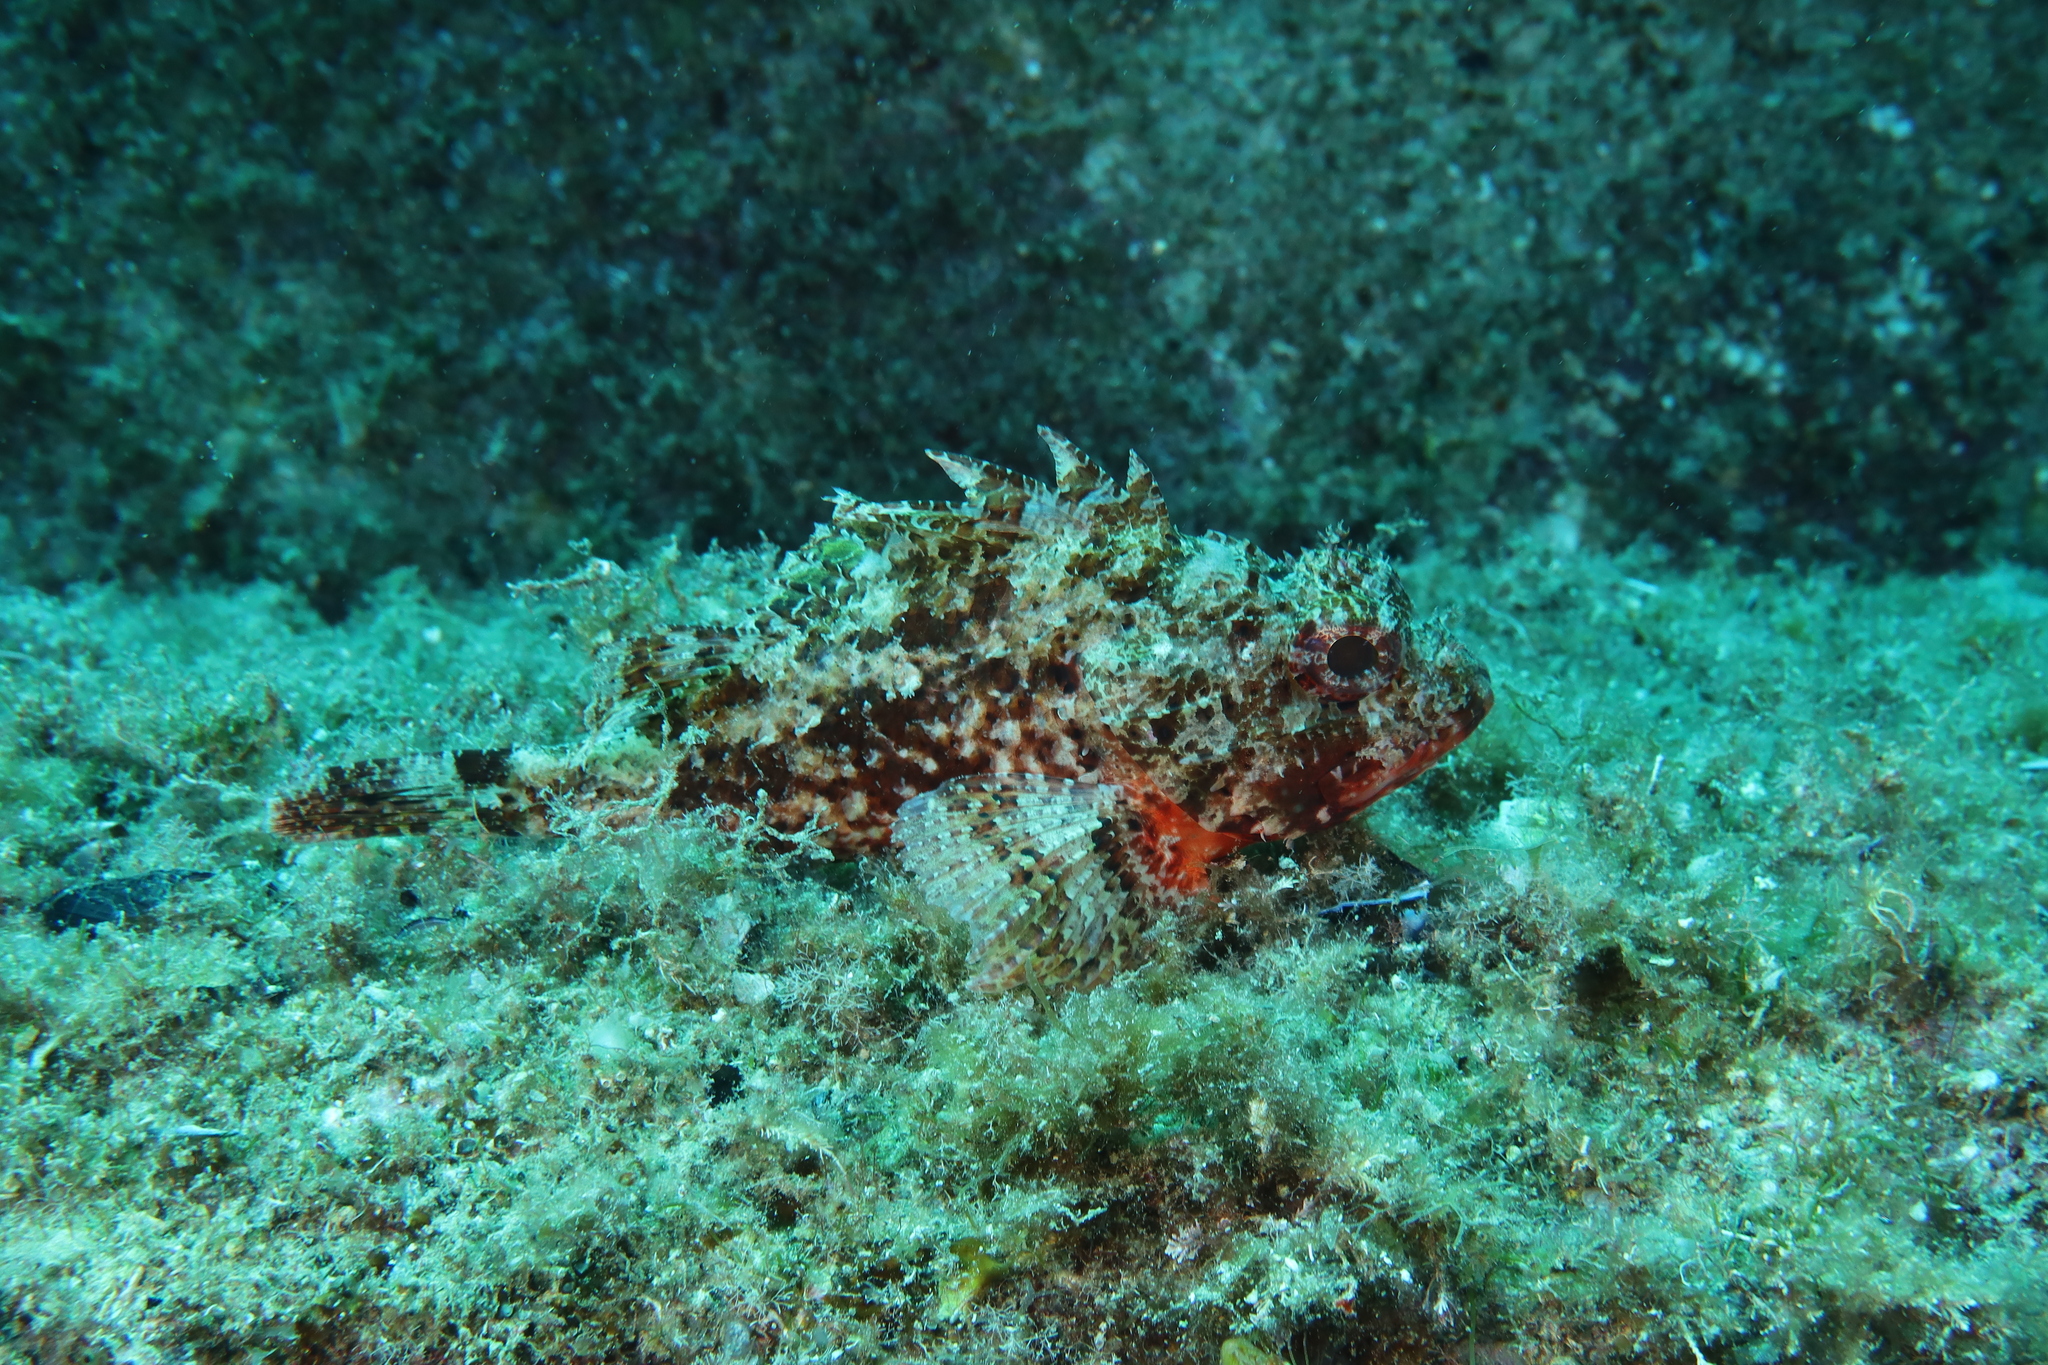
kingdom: Animalia
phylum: Chordata
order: Scorpaeniformes
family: Scorpaenidae
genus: Scorpaena
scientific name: Scorpaena notata
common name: Small red scorpionfish
